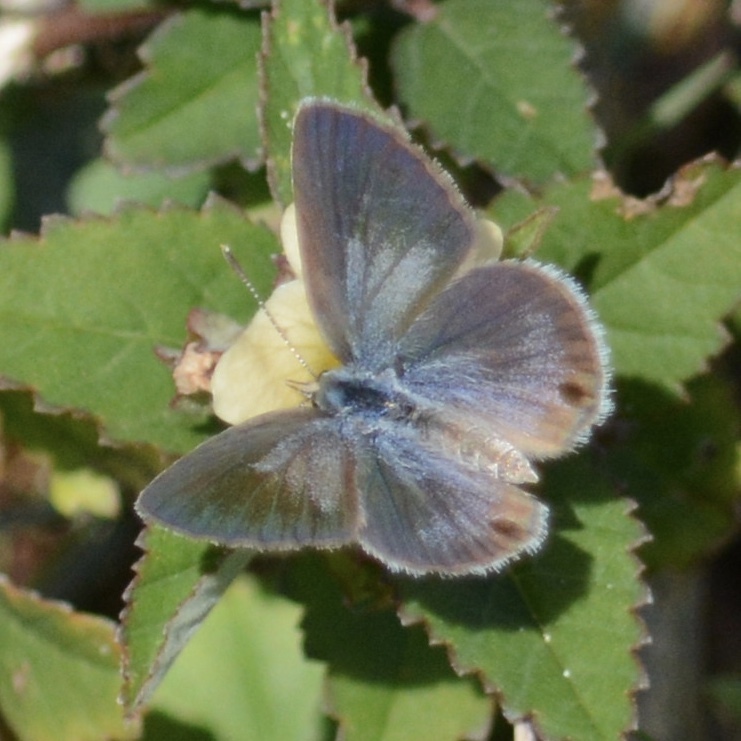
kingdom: Animalia
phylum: Arthropoda
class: Insecta
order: Lepidoptera
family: Lycaenidae
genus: Hemiargus
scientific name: Hemiargus ceraunus
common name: Ceraunus blue
